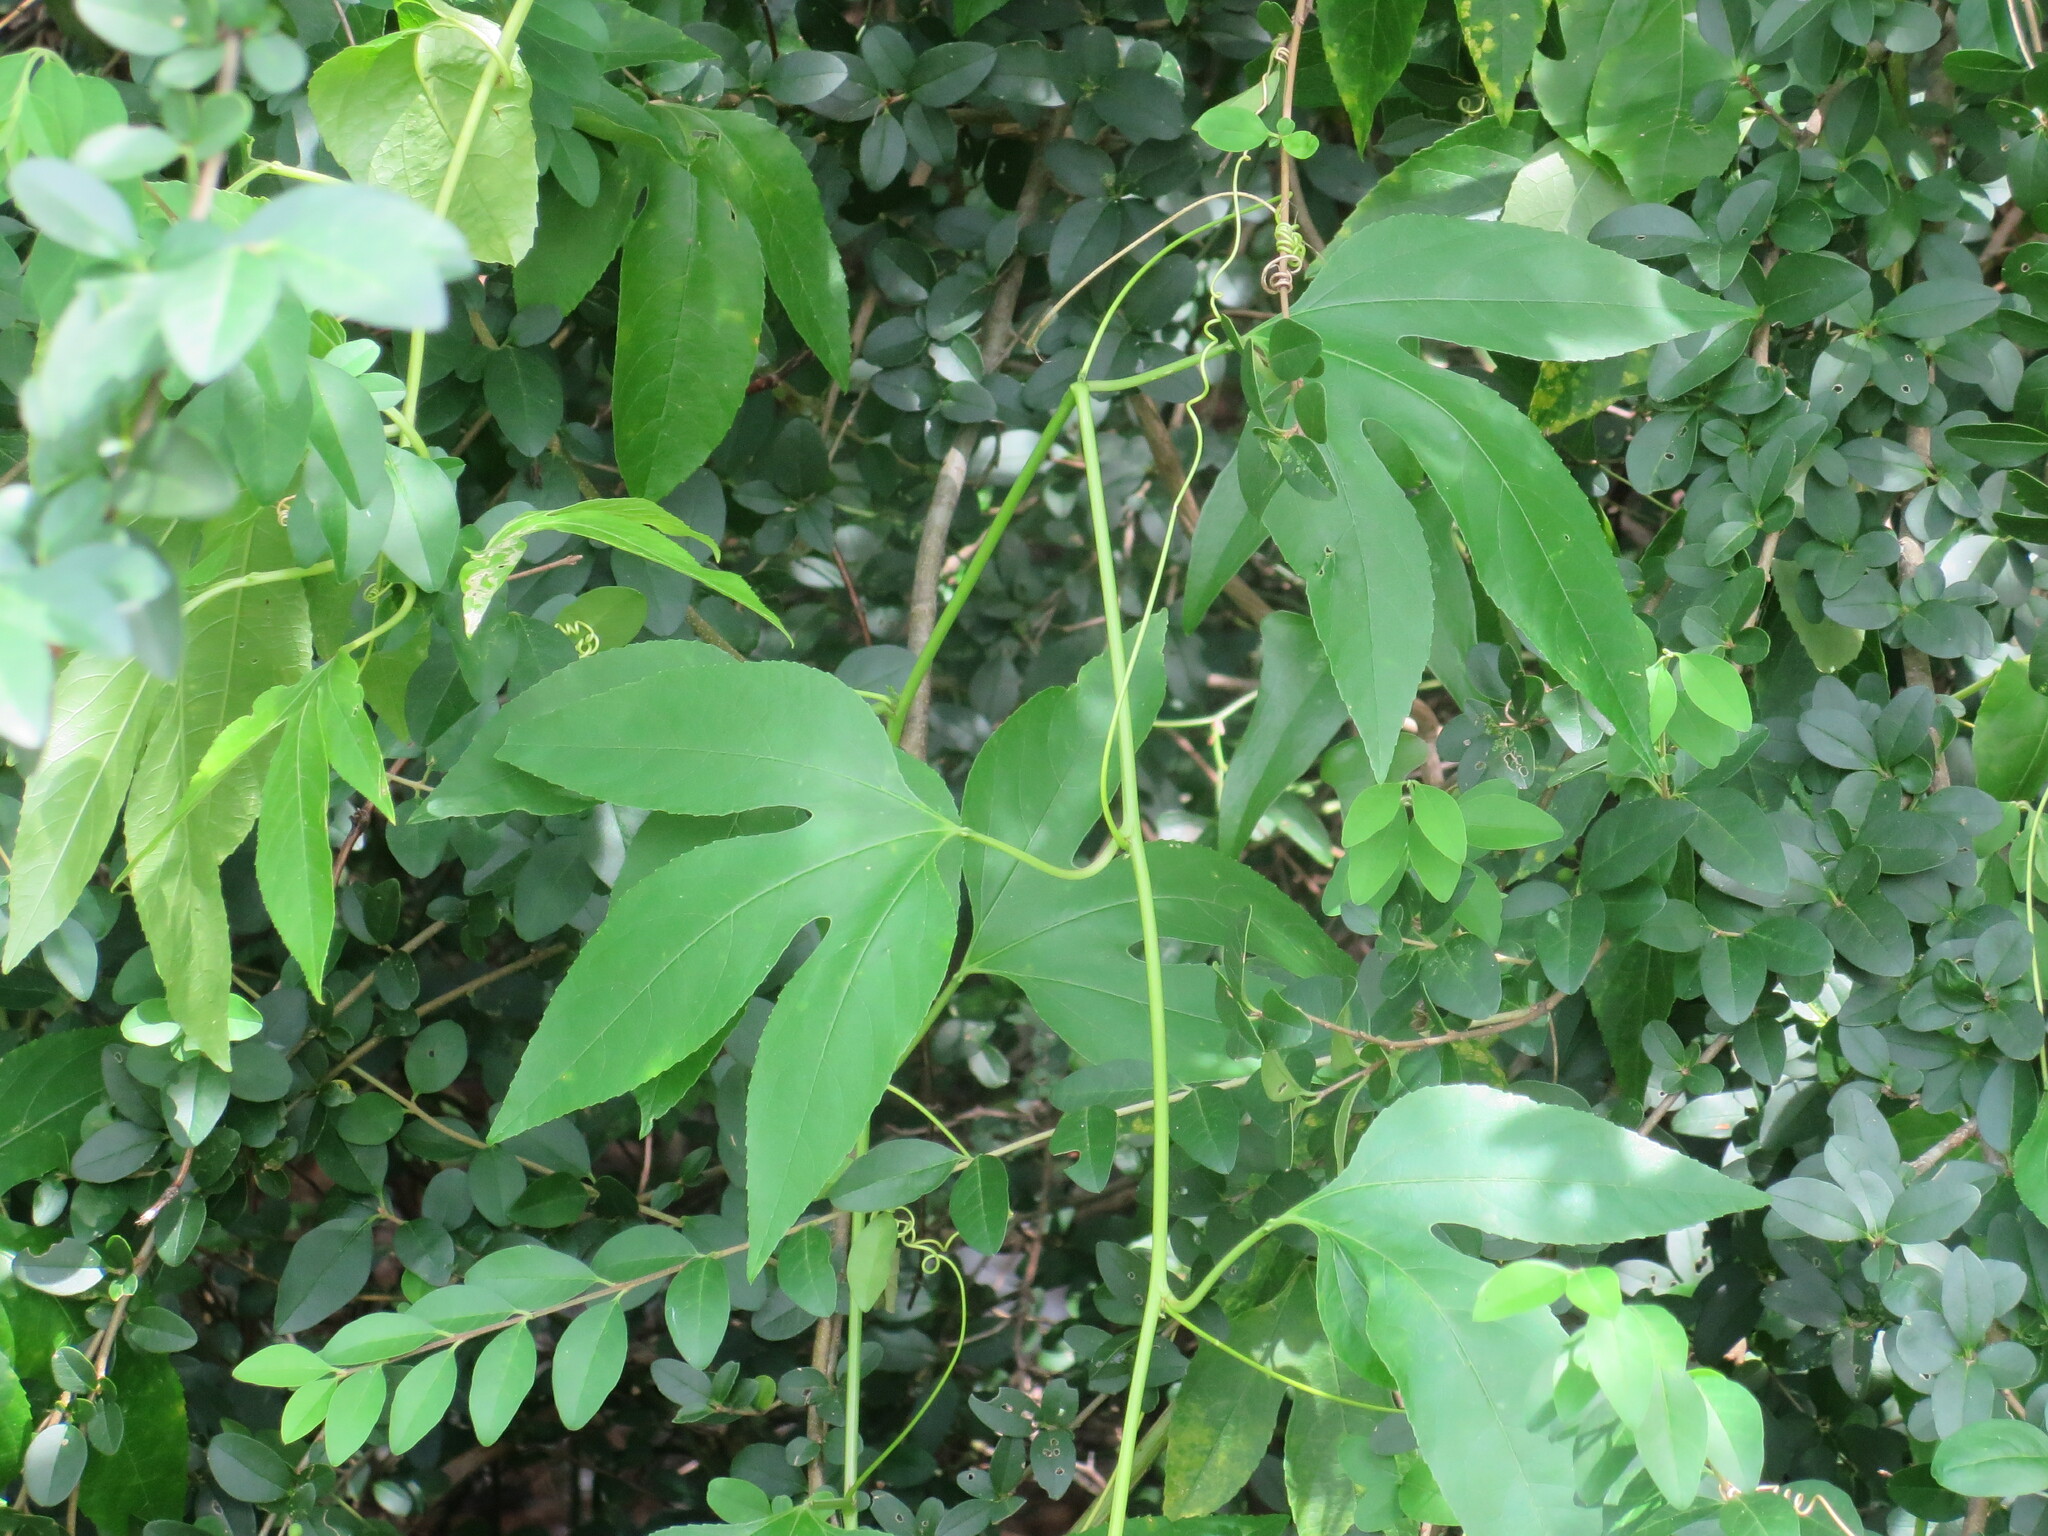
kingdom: Plantae
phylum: Tracheophyta
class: Magnoliopsida
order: Malpighiales
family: Passifloraceae
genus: Passiflora
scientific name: Passiflora incarnata
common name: Apricot-vine
